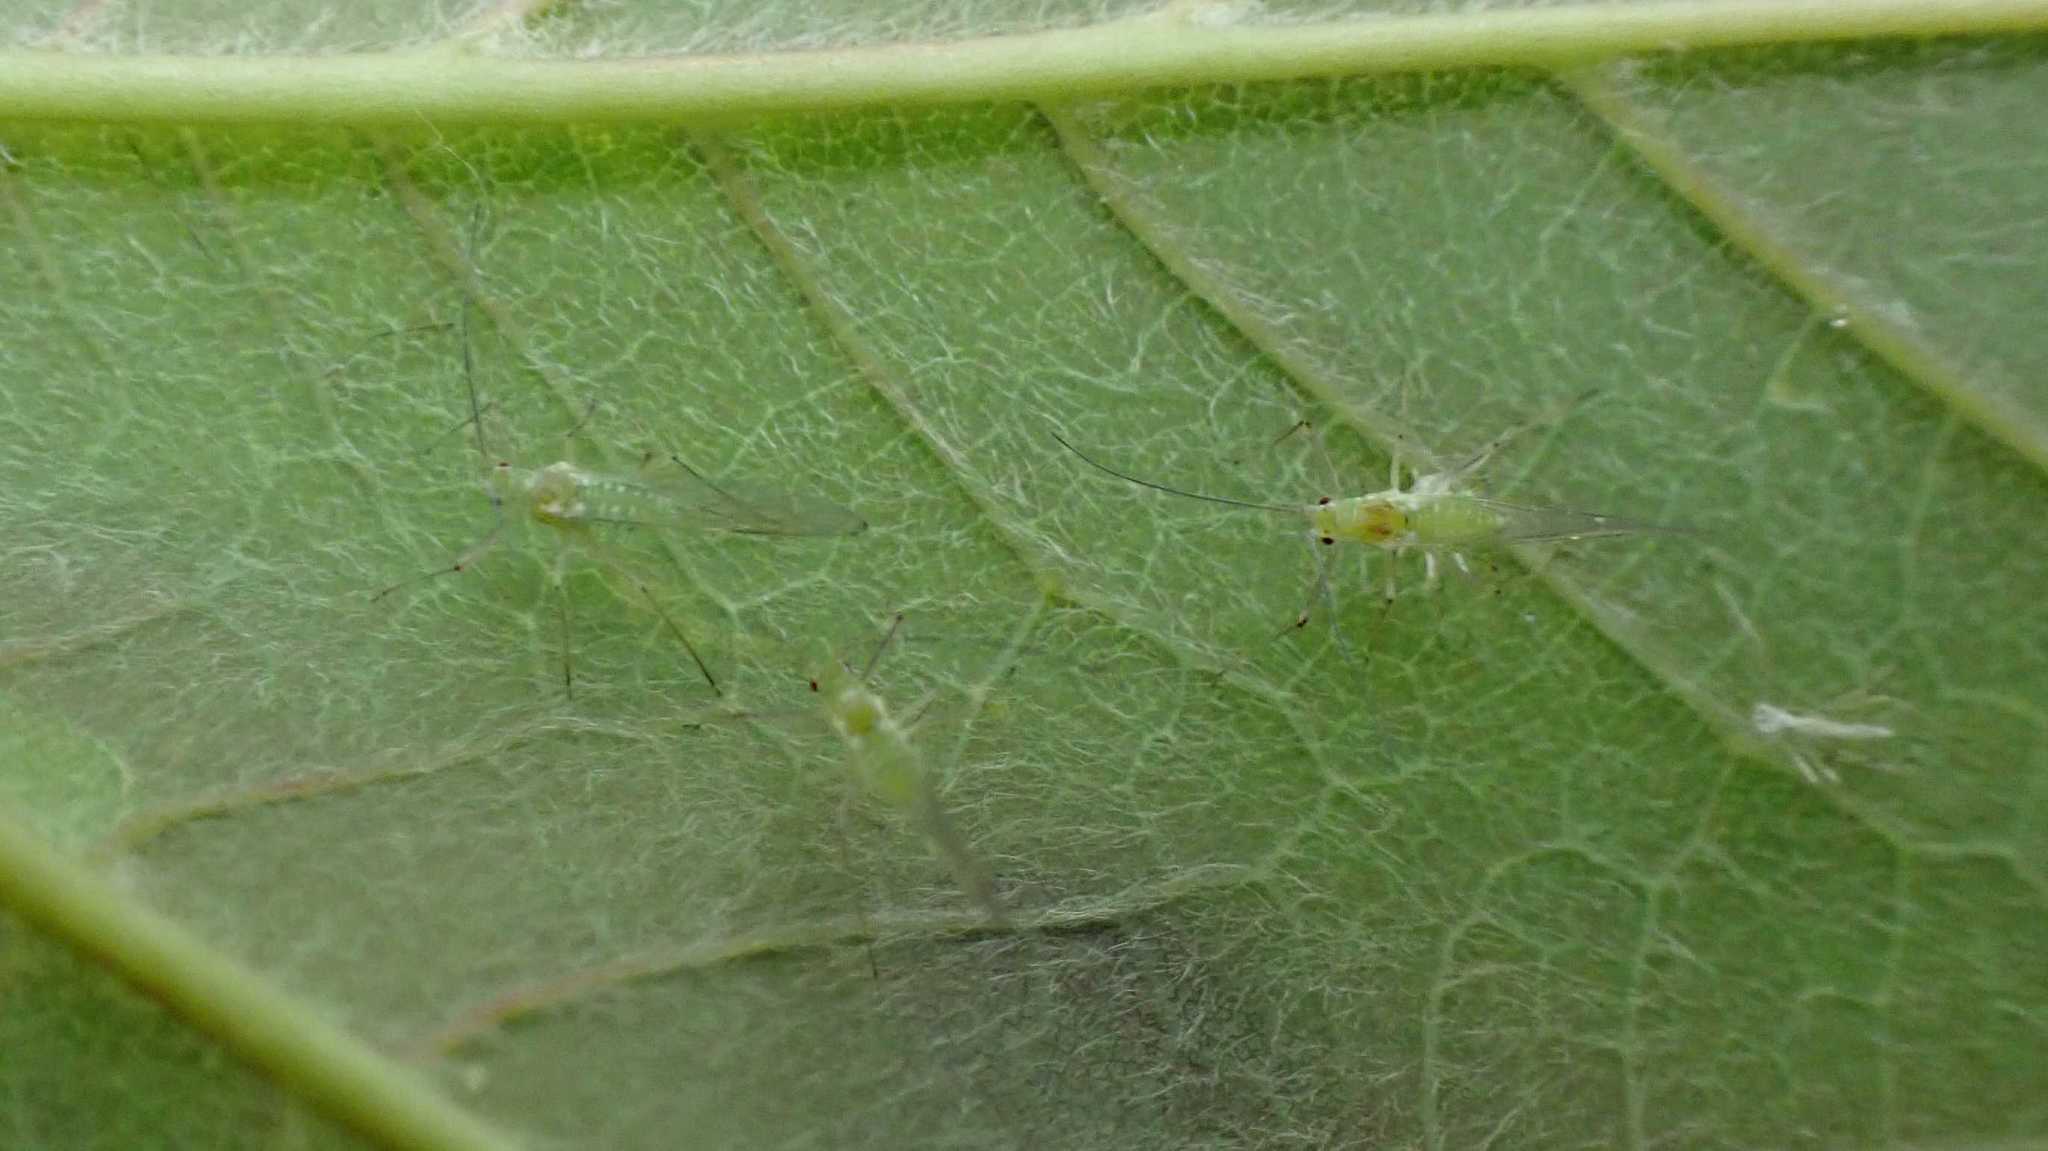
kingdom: Animalia
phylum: Arthropoda
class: Insecta
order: Hemiptera
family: Aphididae
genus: Drepanosiphum
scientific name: Drepanosiphum platanoidis
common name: Common sycamore aphid
